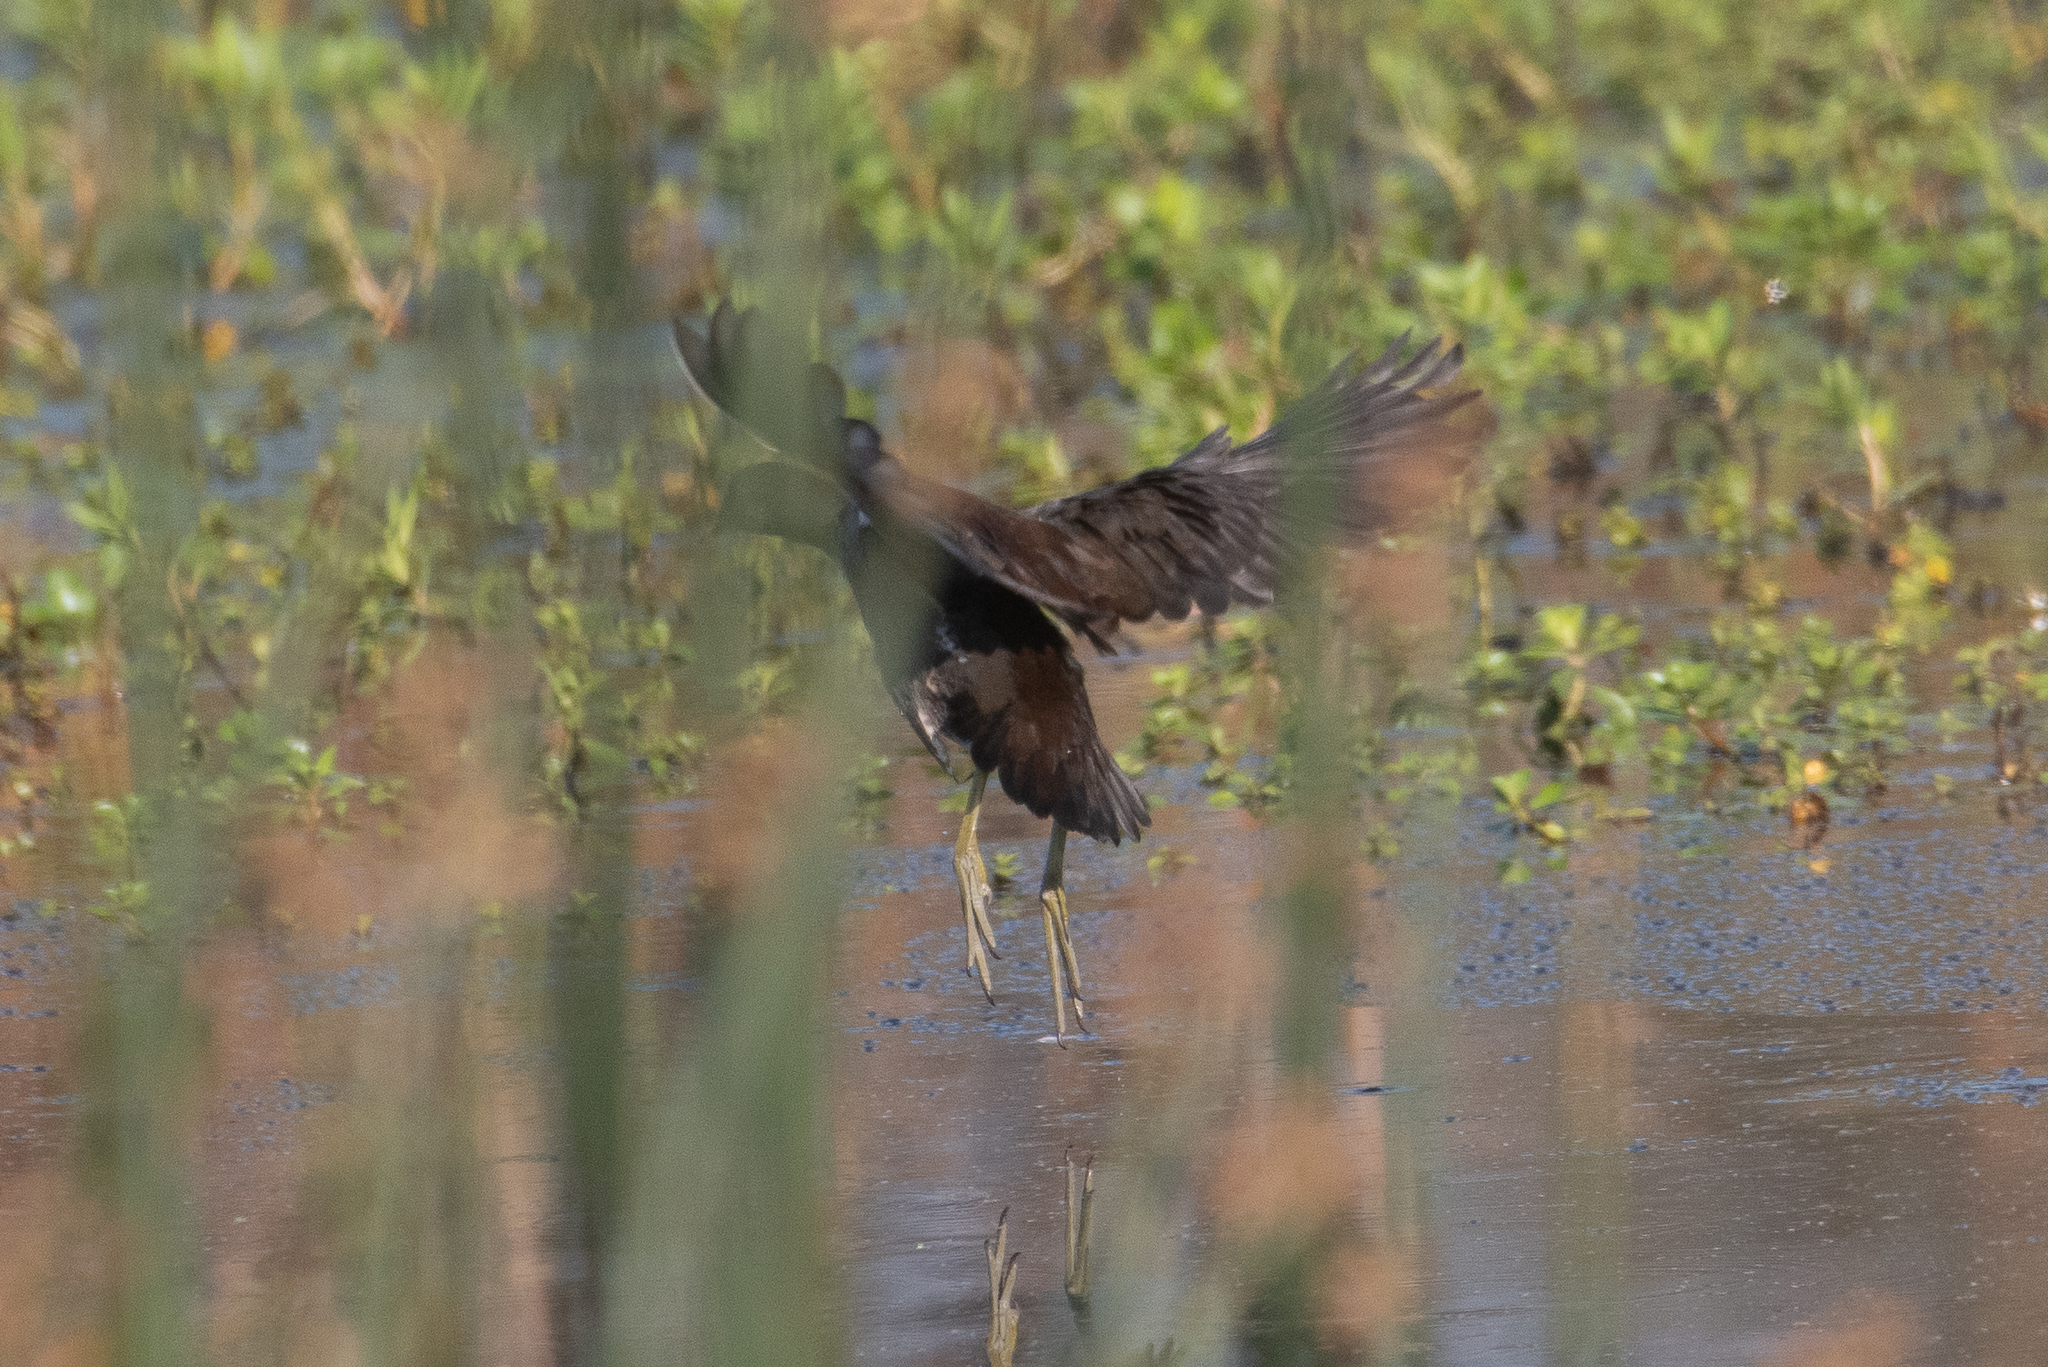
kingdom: Animalia
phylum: Chordata
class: Aves
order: Gruiformes
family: Rallidae
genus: Gallinula
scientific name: Gallinula chloropus
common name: Common moorhen
